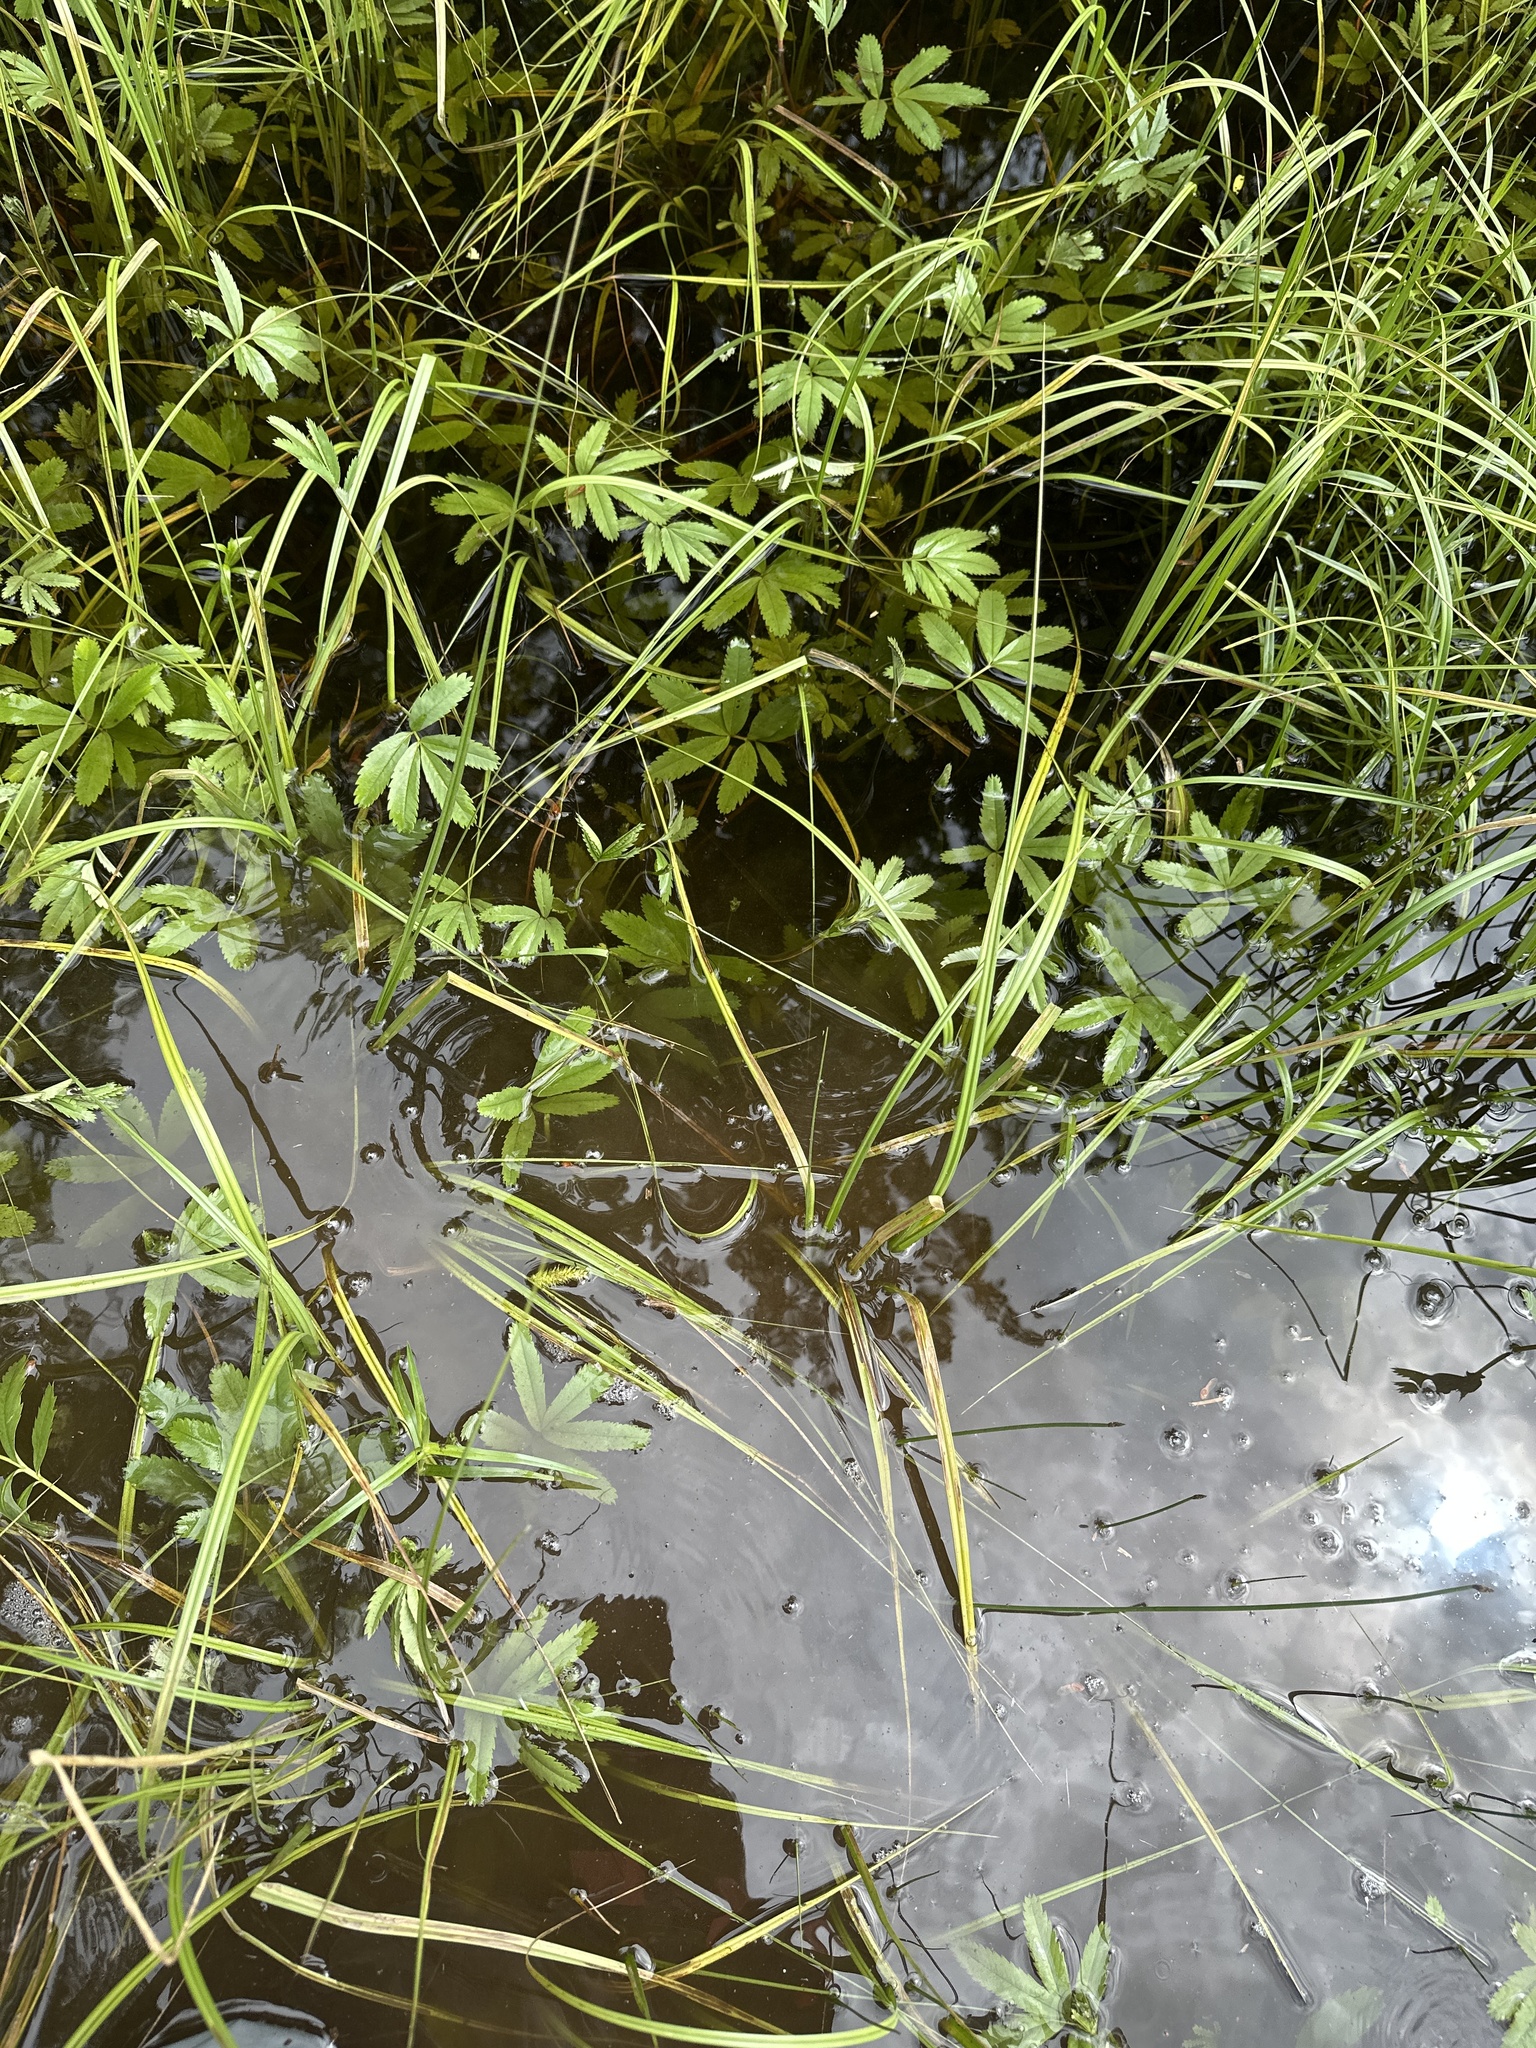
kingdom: Plantae
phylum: Tracheophyta
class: Magnoliopsida
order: Rosales
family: Rosaceae
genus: Comarum
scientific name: Comarum palustre
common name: Marsh cinquefoil
